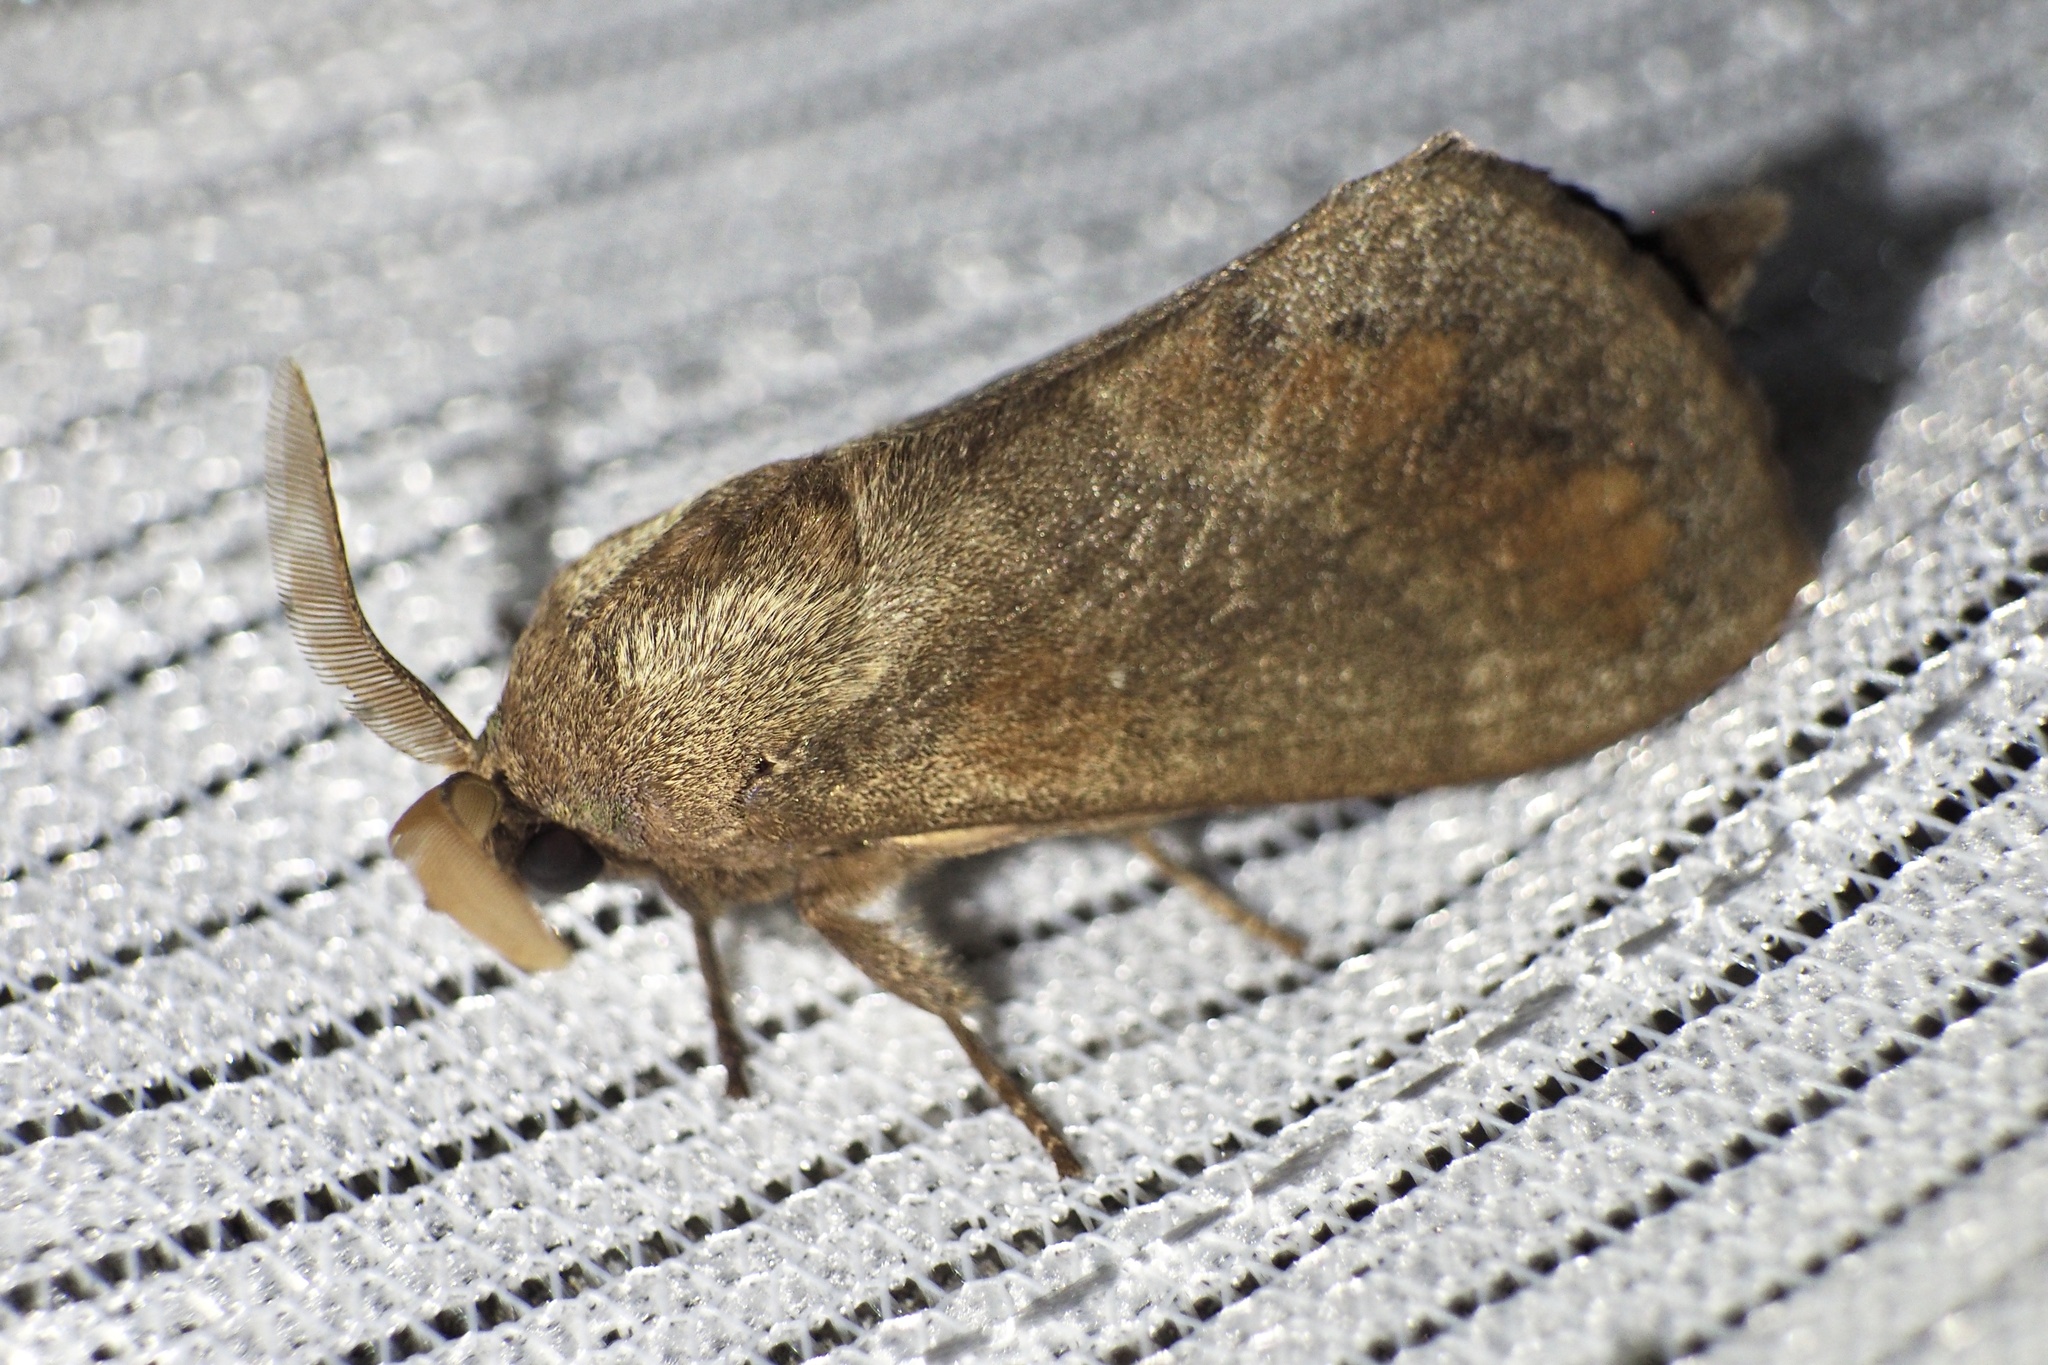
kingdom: Animalia
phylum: Arthropoda
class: Insecta
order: Lepidoptera
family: Lasiocampidae
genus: Dendrolimus
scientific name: Dendrolimus spectabilis
